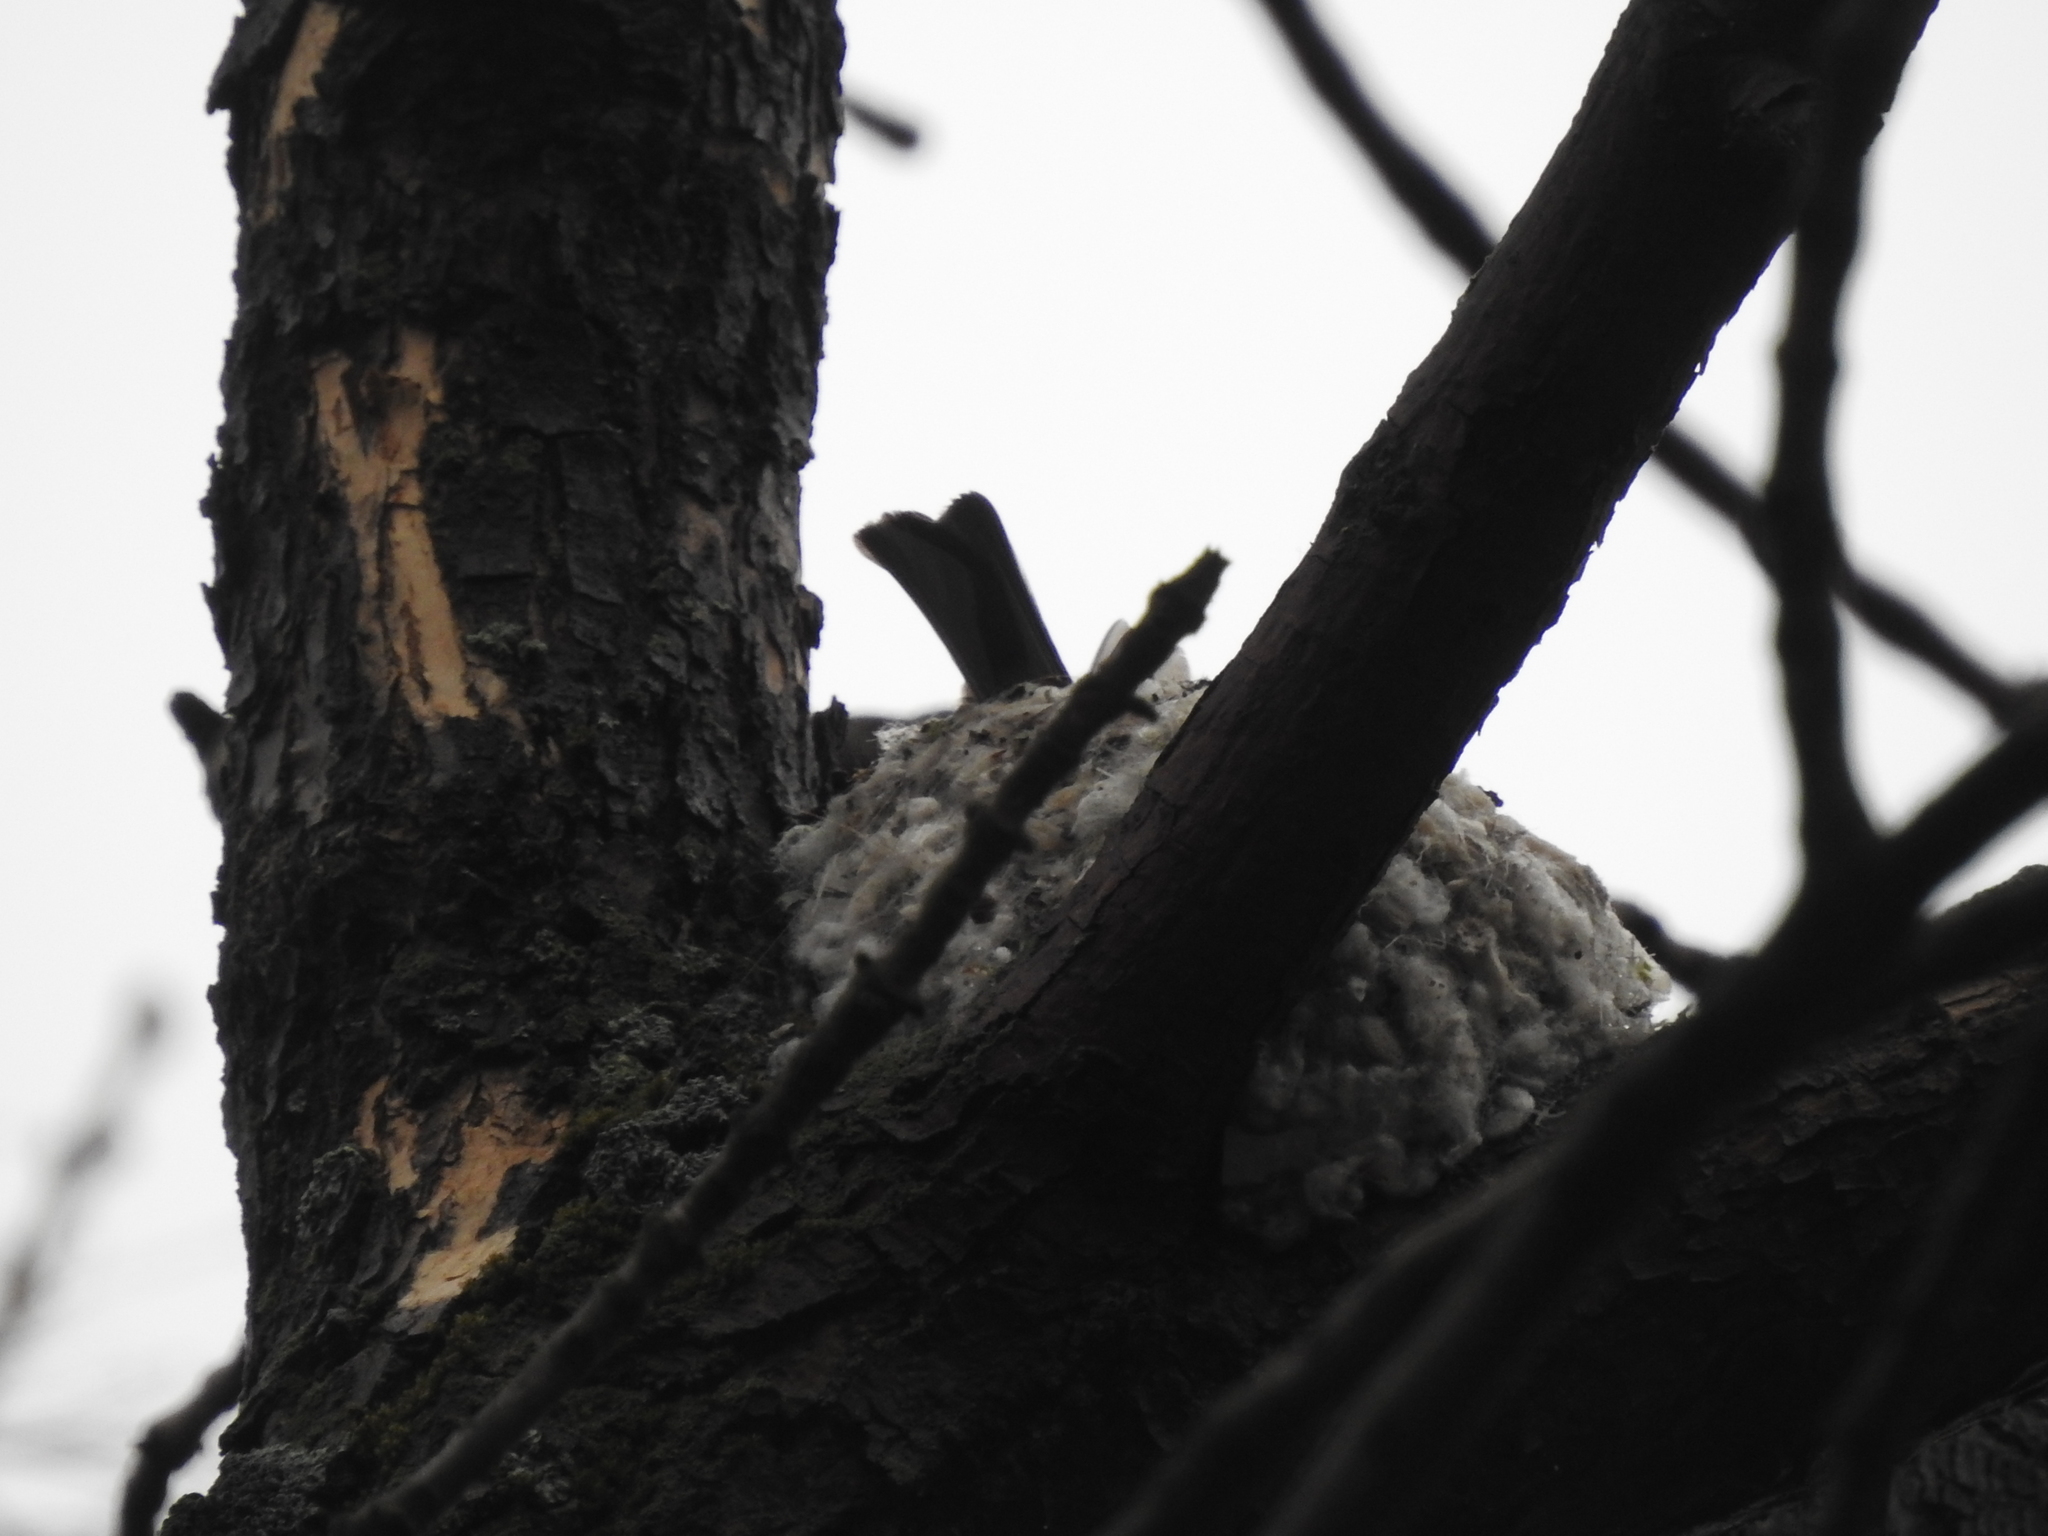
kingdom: Animalia
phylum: Chordata
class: Aves
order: Passeriformes
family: Corvidae
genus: Corvus
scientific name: Corvus cornix
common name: Hooded crow
